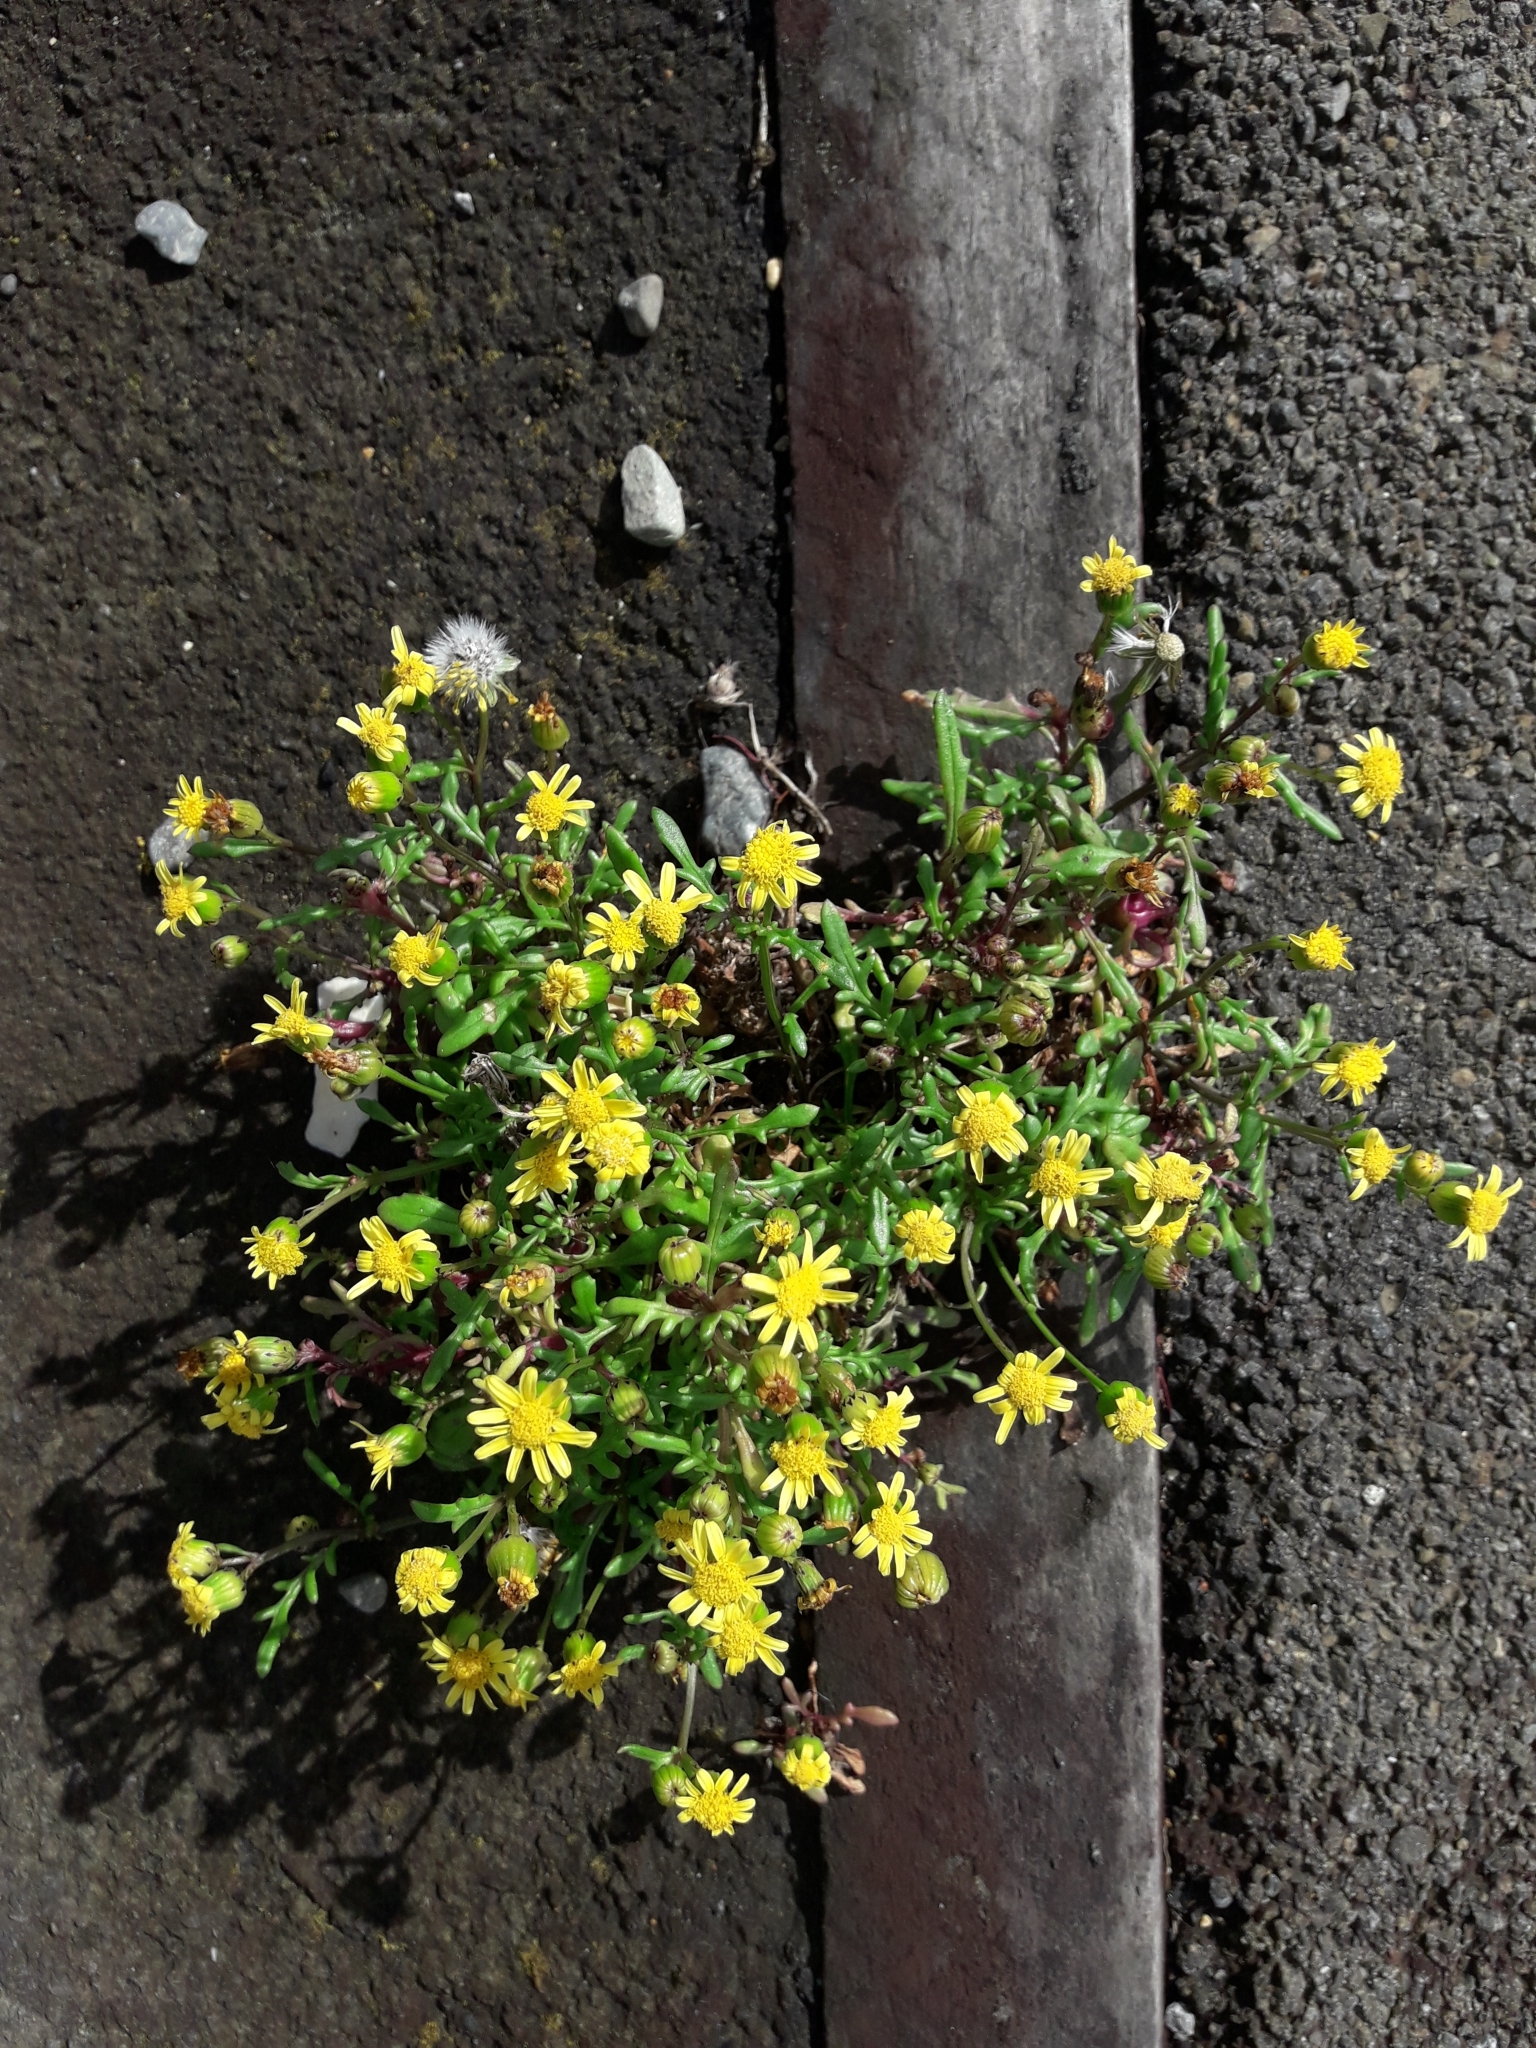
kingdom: Plantae
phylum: Tracheophyta
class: Magnoliopsida
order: Asterales
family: Asteraceae
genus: Senecio
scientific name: Senecio lautus
